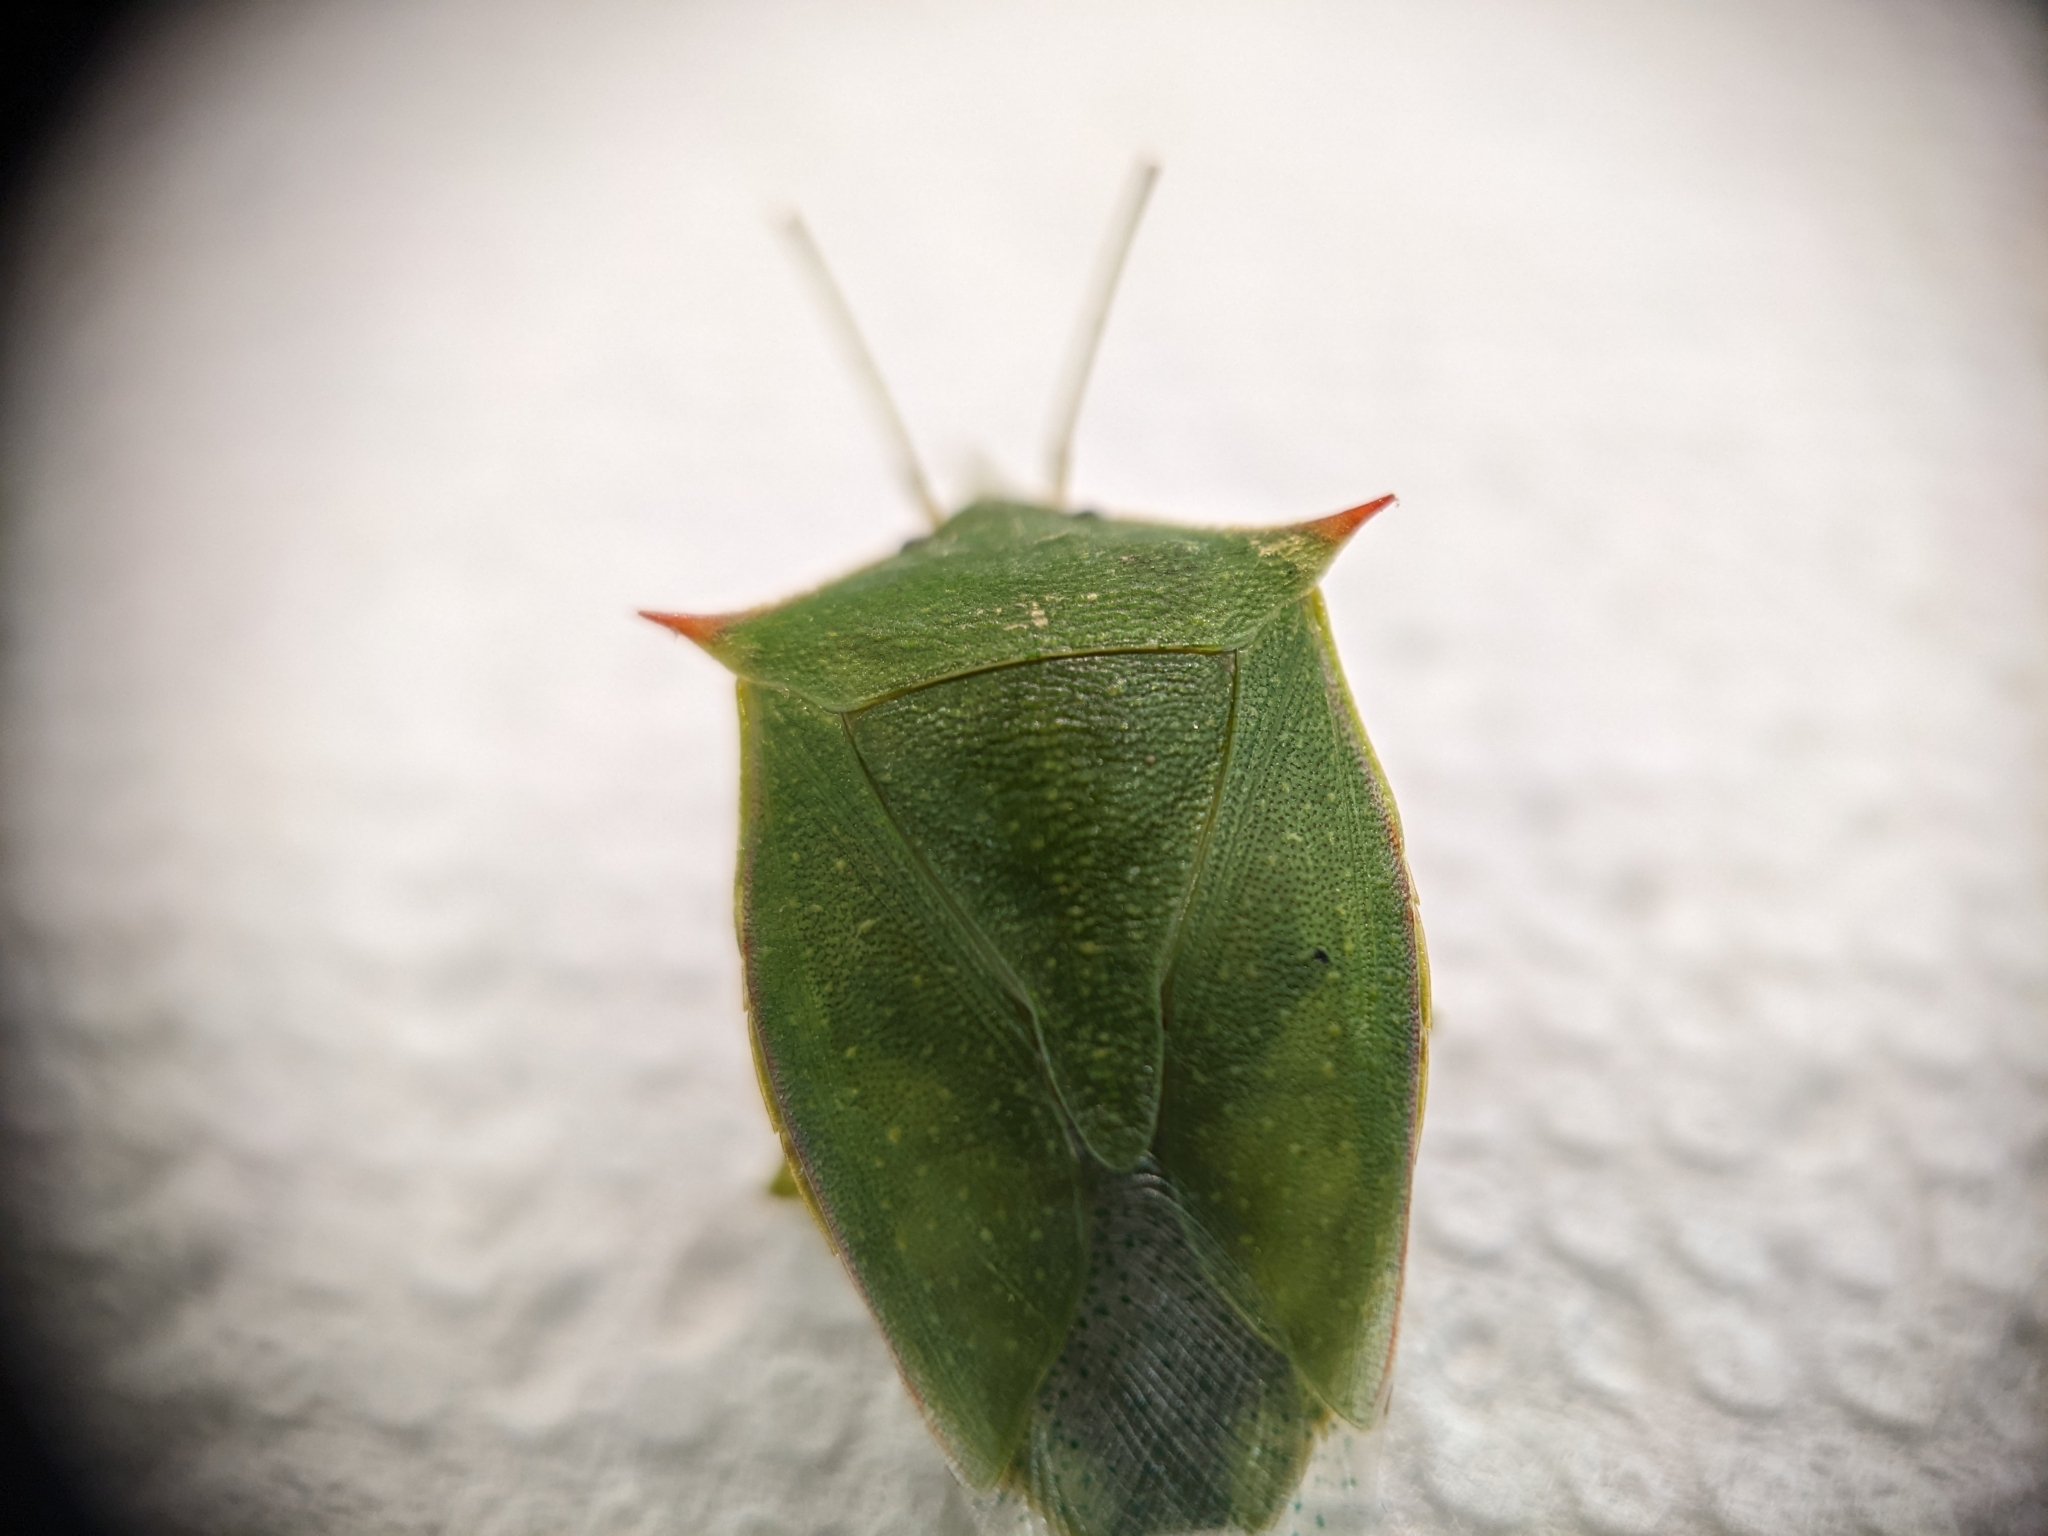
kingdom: Animalia
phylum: Arthropoda
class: Insecta
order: Hemiptera
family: Pentatomidae
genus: Loxa
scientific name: Loxa flavicollis
